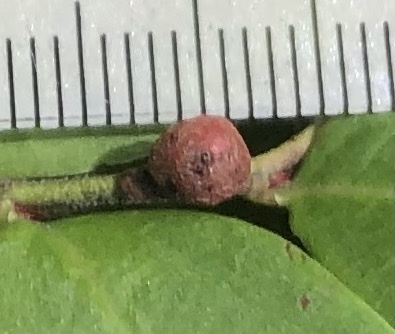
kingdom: Animalia
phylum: Arthropoda
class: Insecta
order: Hymenoptera
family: Pteromalidae
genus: Hemadas
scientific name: Hemadas nubilipennis
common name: Blueberry stem gall wasp
